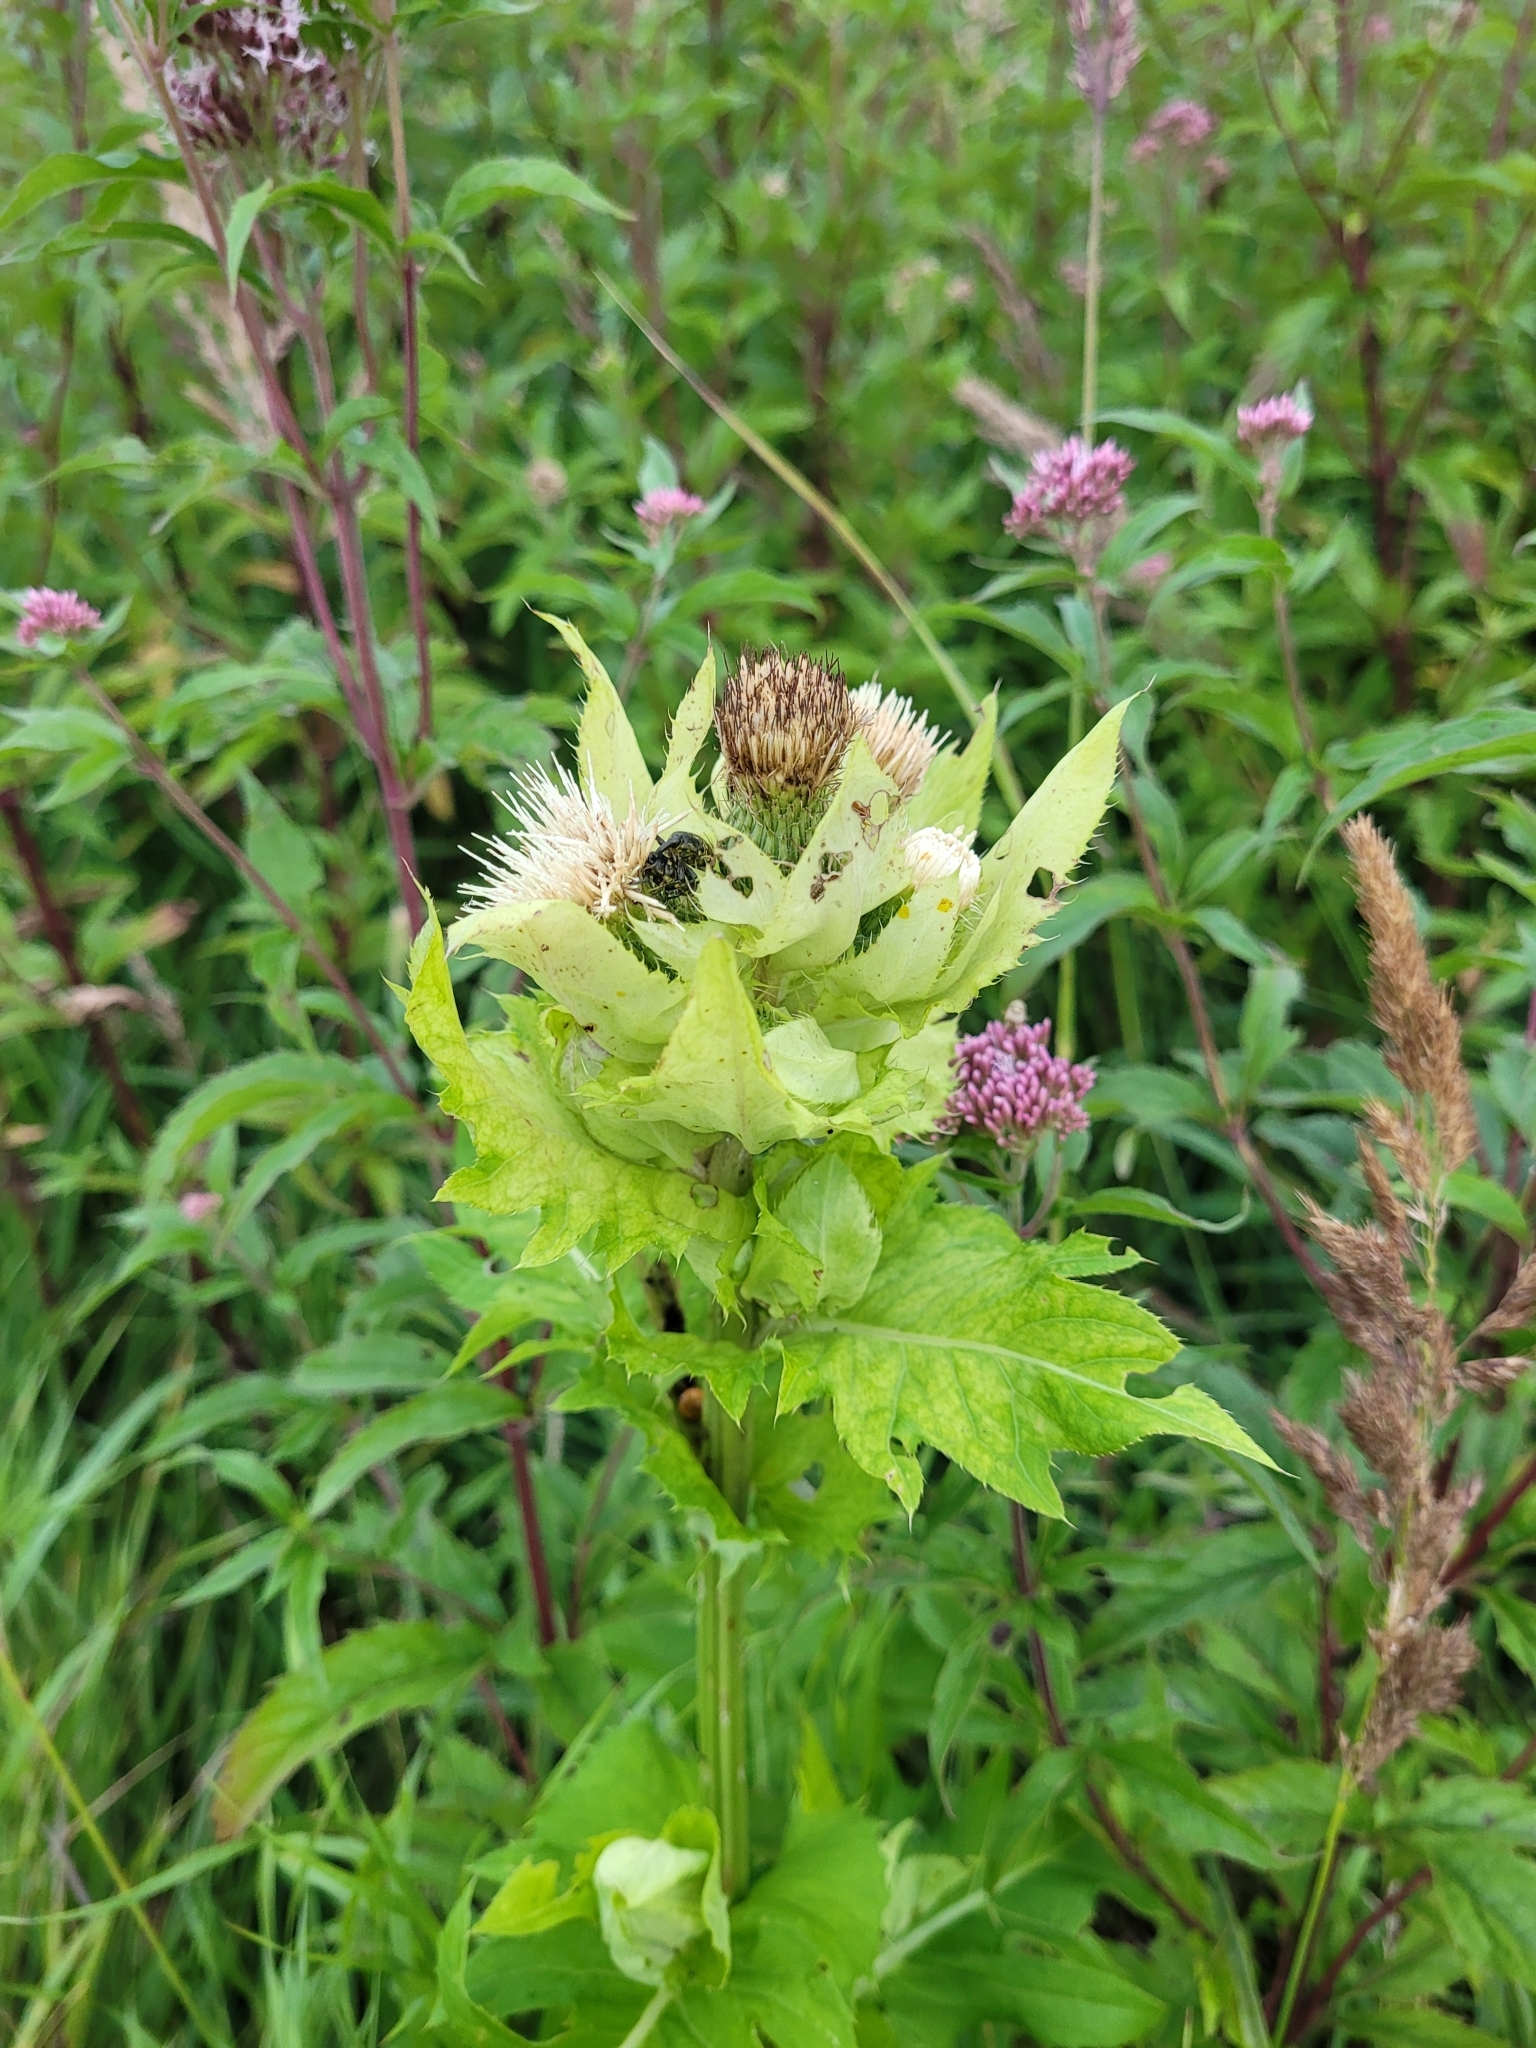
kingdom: Plantae
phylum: Tracheophyta
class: Magnoliopsida
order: Asterales
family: Asteraceae
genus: Cirsium
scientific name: Cirsium oleraceum
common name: Cabbage thistle
